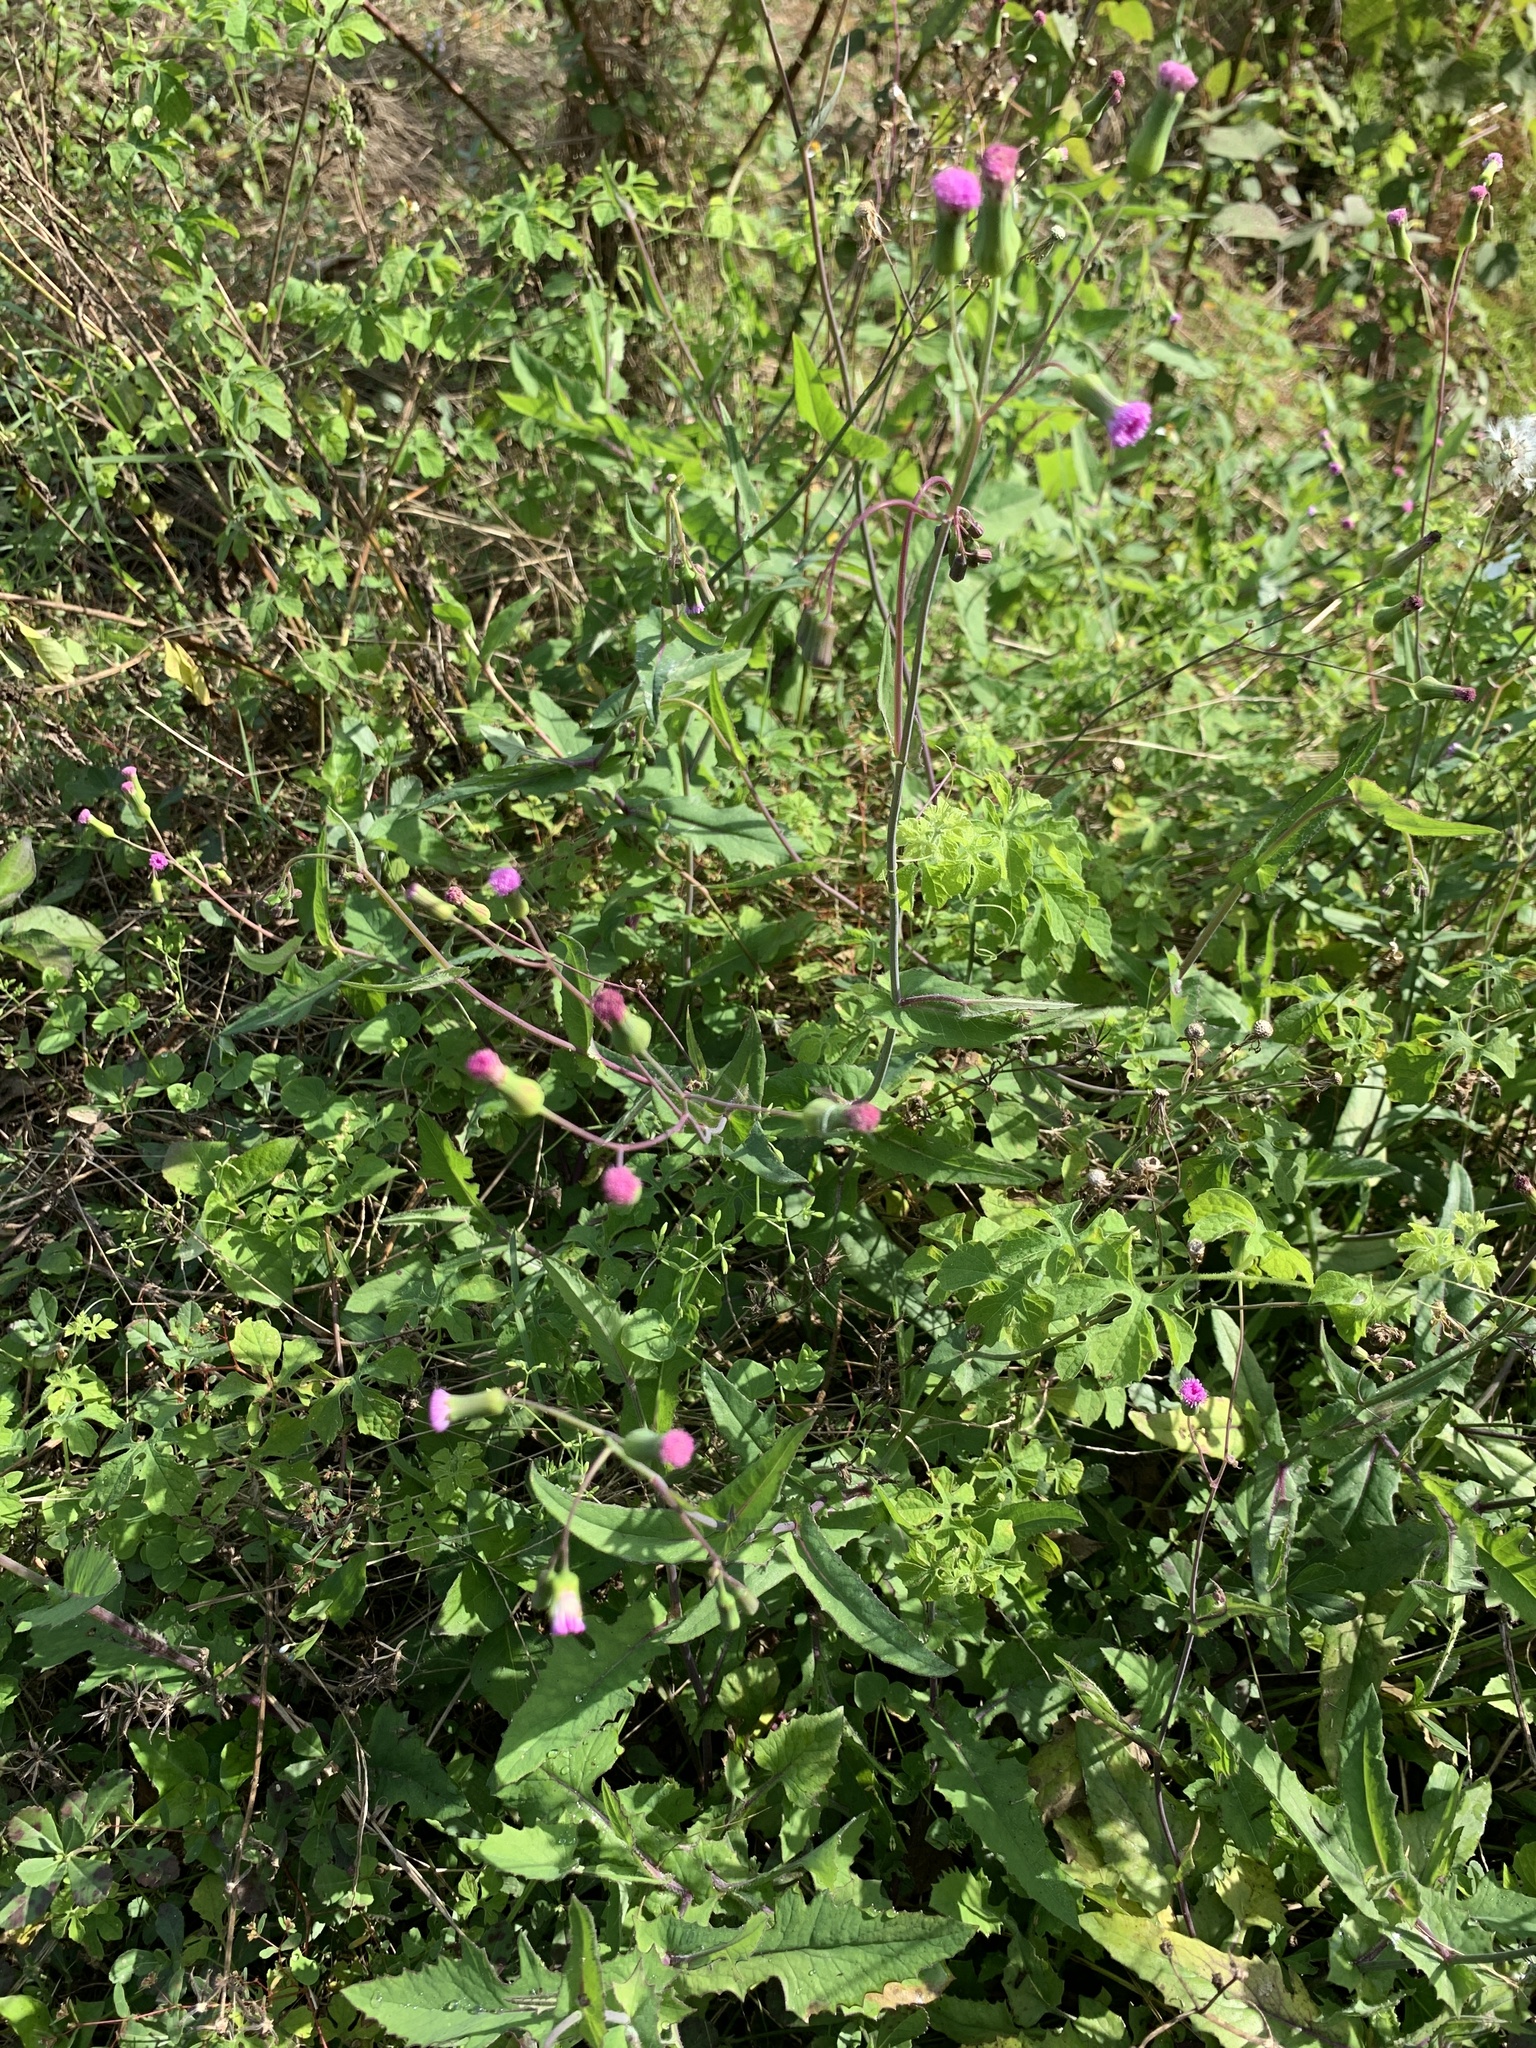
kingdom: Plantae
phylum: Tracheophyta
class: Magnoliopsida
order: Asterales
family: Asteraceae
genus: Emilia
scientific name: Emilia sonchifolia
